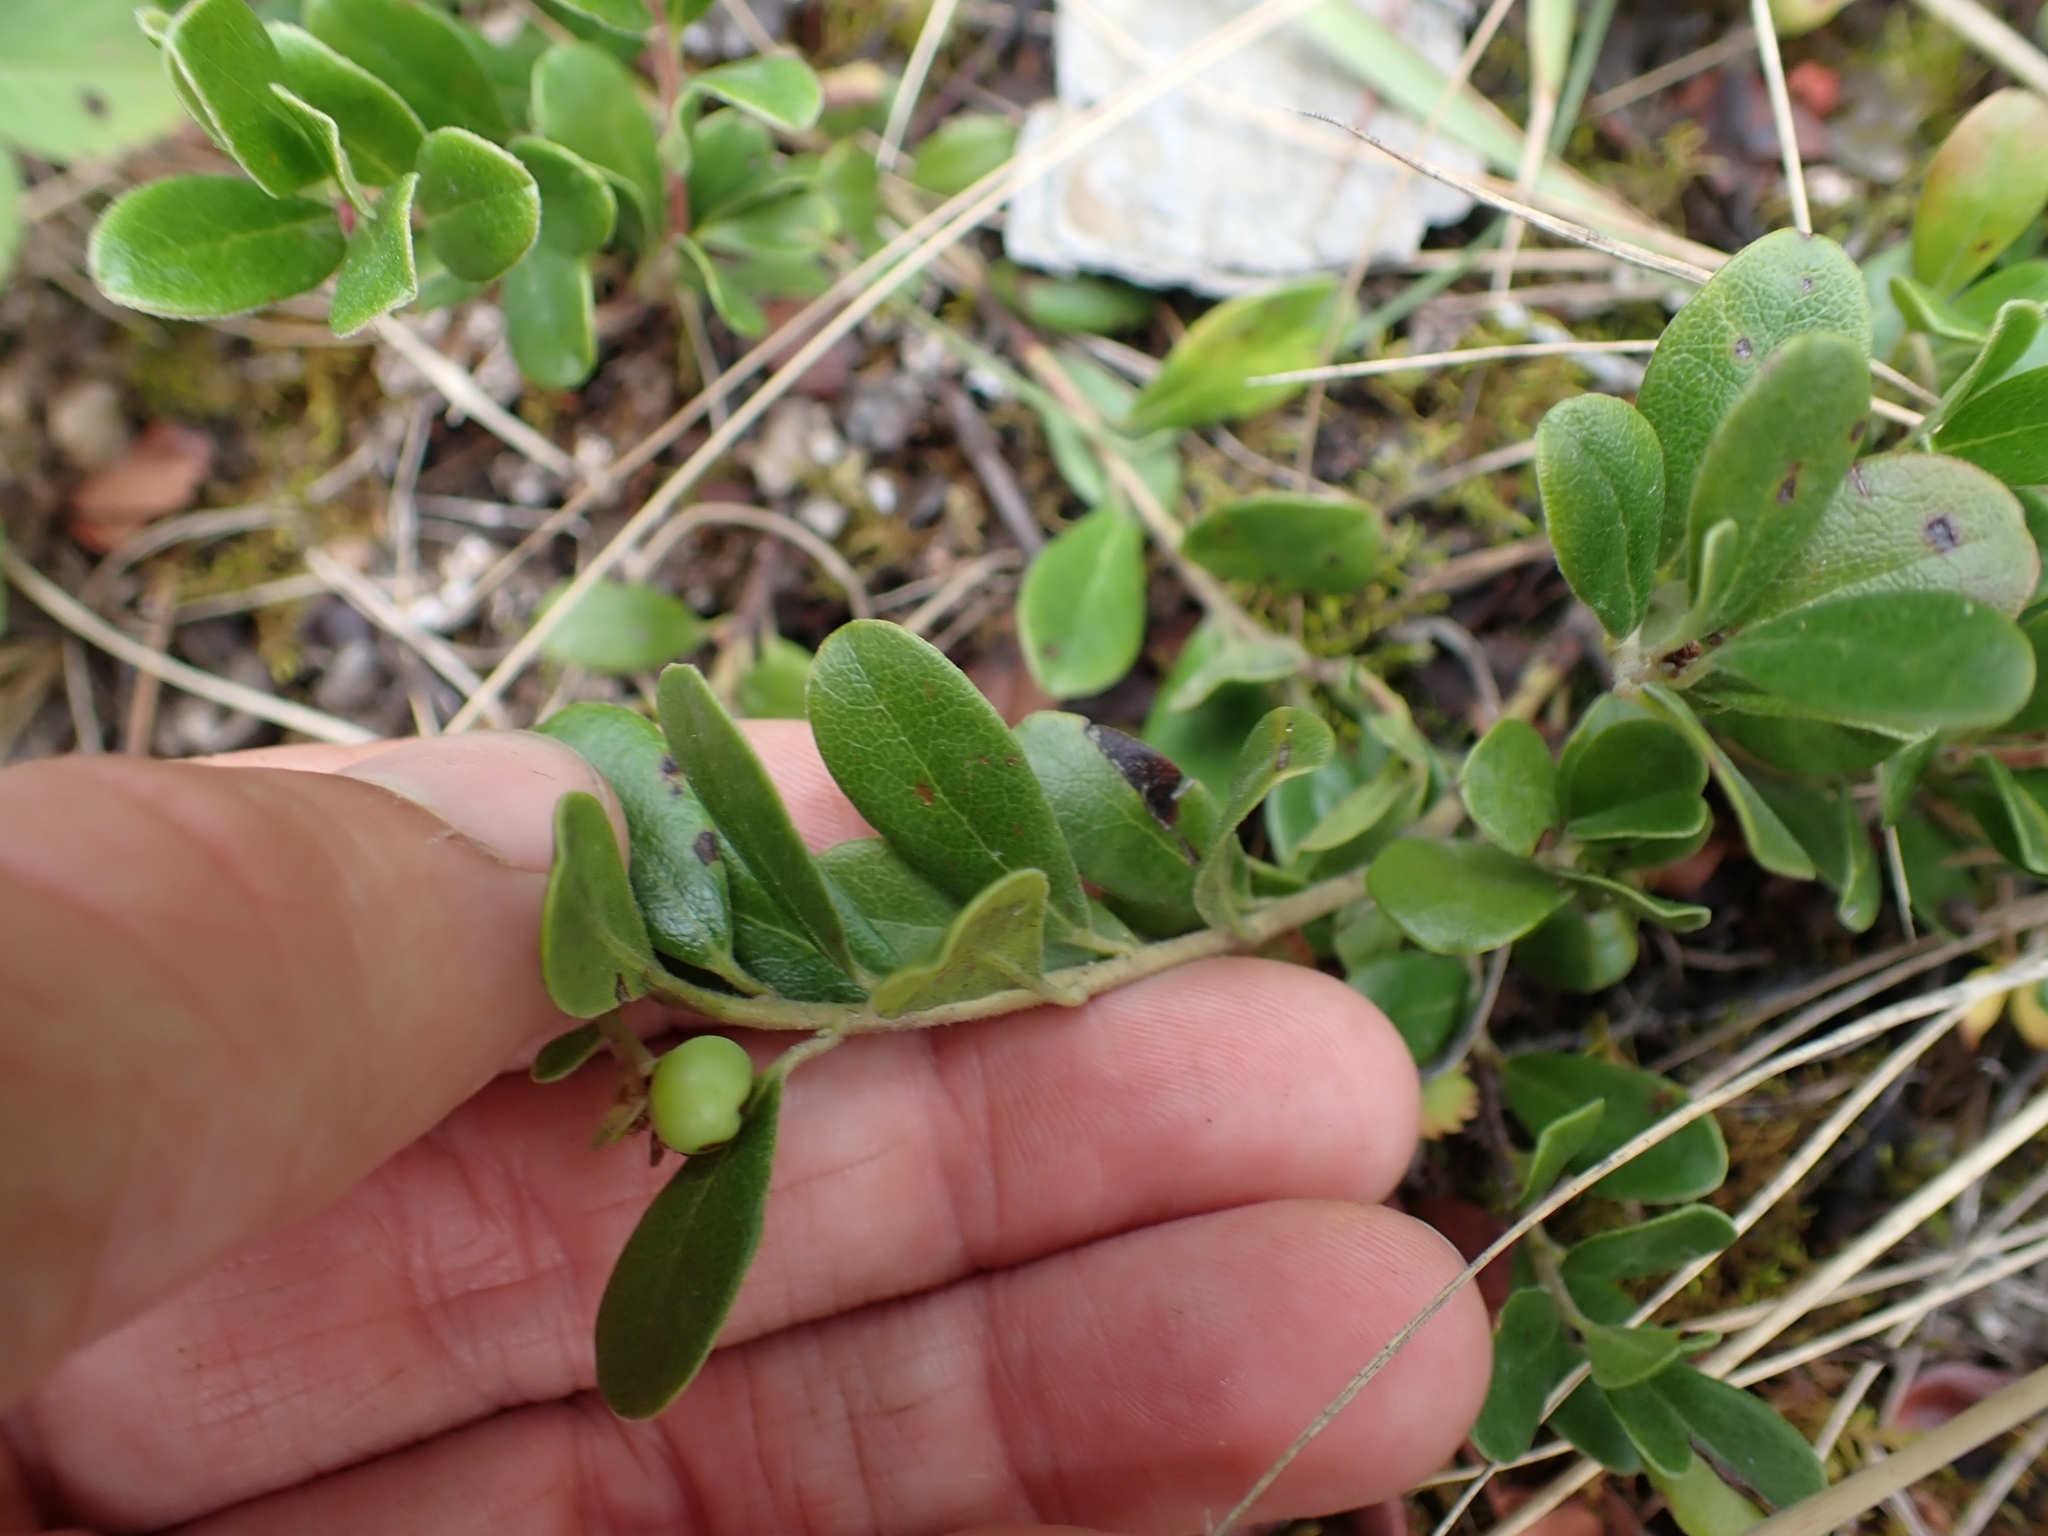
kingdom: Plantae
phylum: Tracheophyta
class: Magnoliopsida
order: Ericales
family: Ericaceae
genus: Arctostaphylos
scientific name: Arctostaphylos uva-ursi
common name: Bearberry
